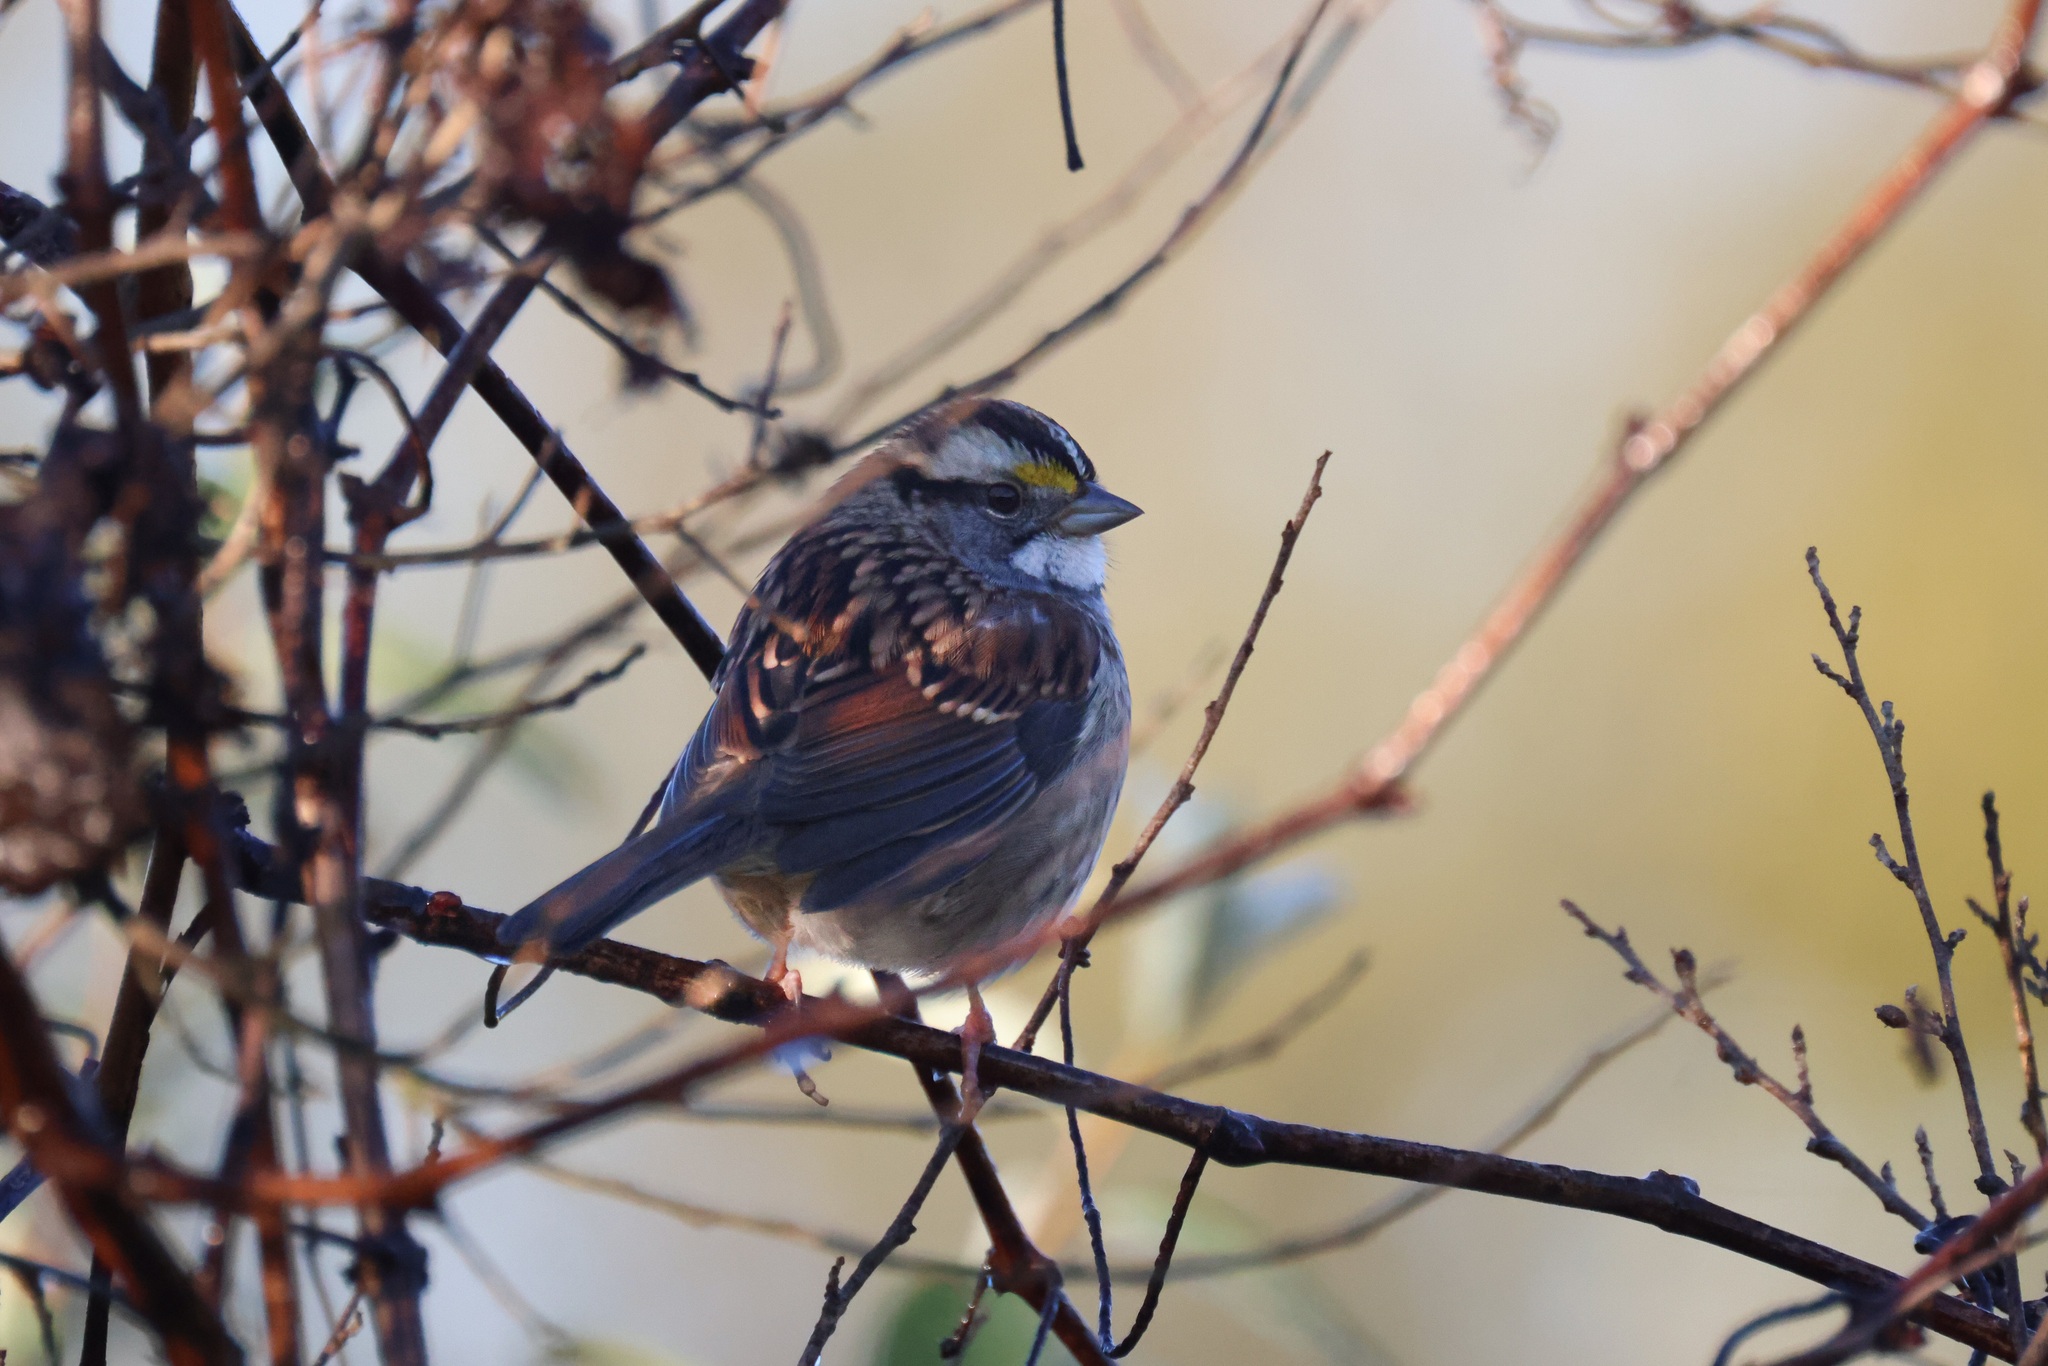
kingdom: Animalia
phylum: Chordata
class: Aves
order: Passeriformes
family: Passerellidae
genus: Zonotrichia
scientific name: Zonotrichia albicollis
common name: White-throated sparrow
